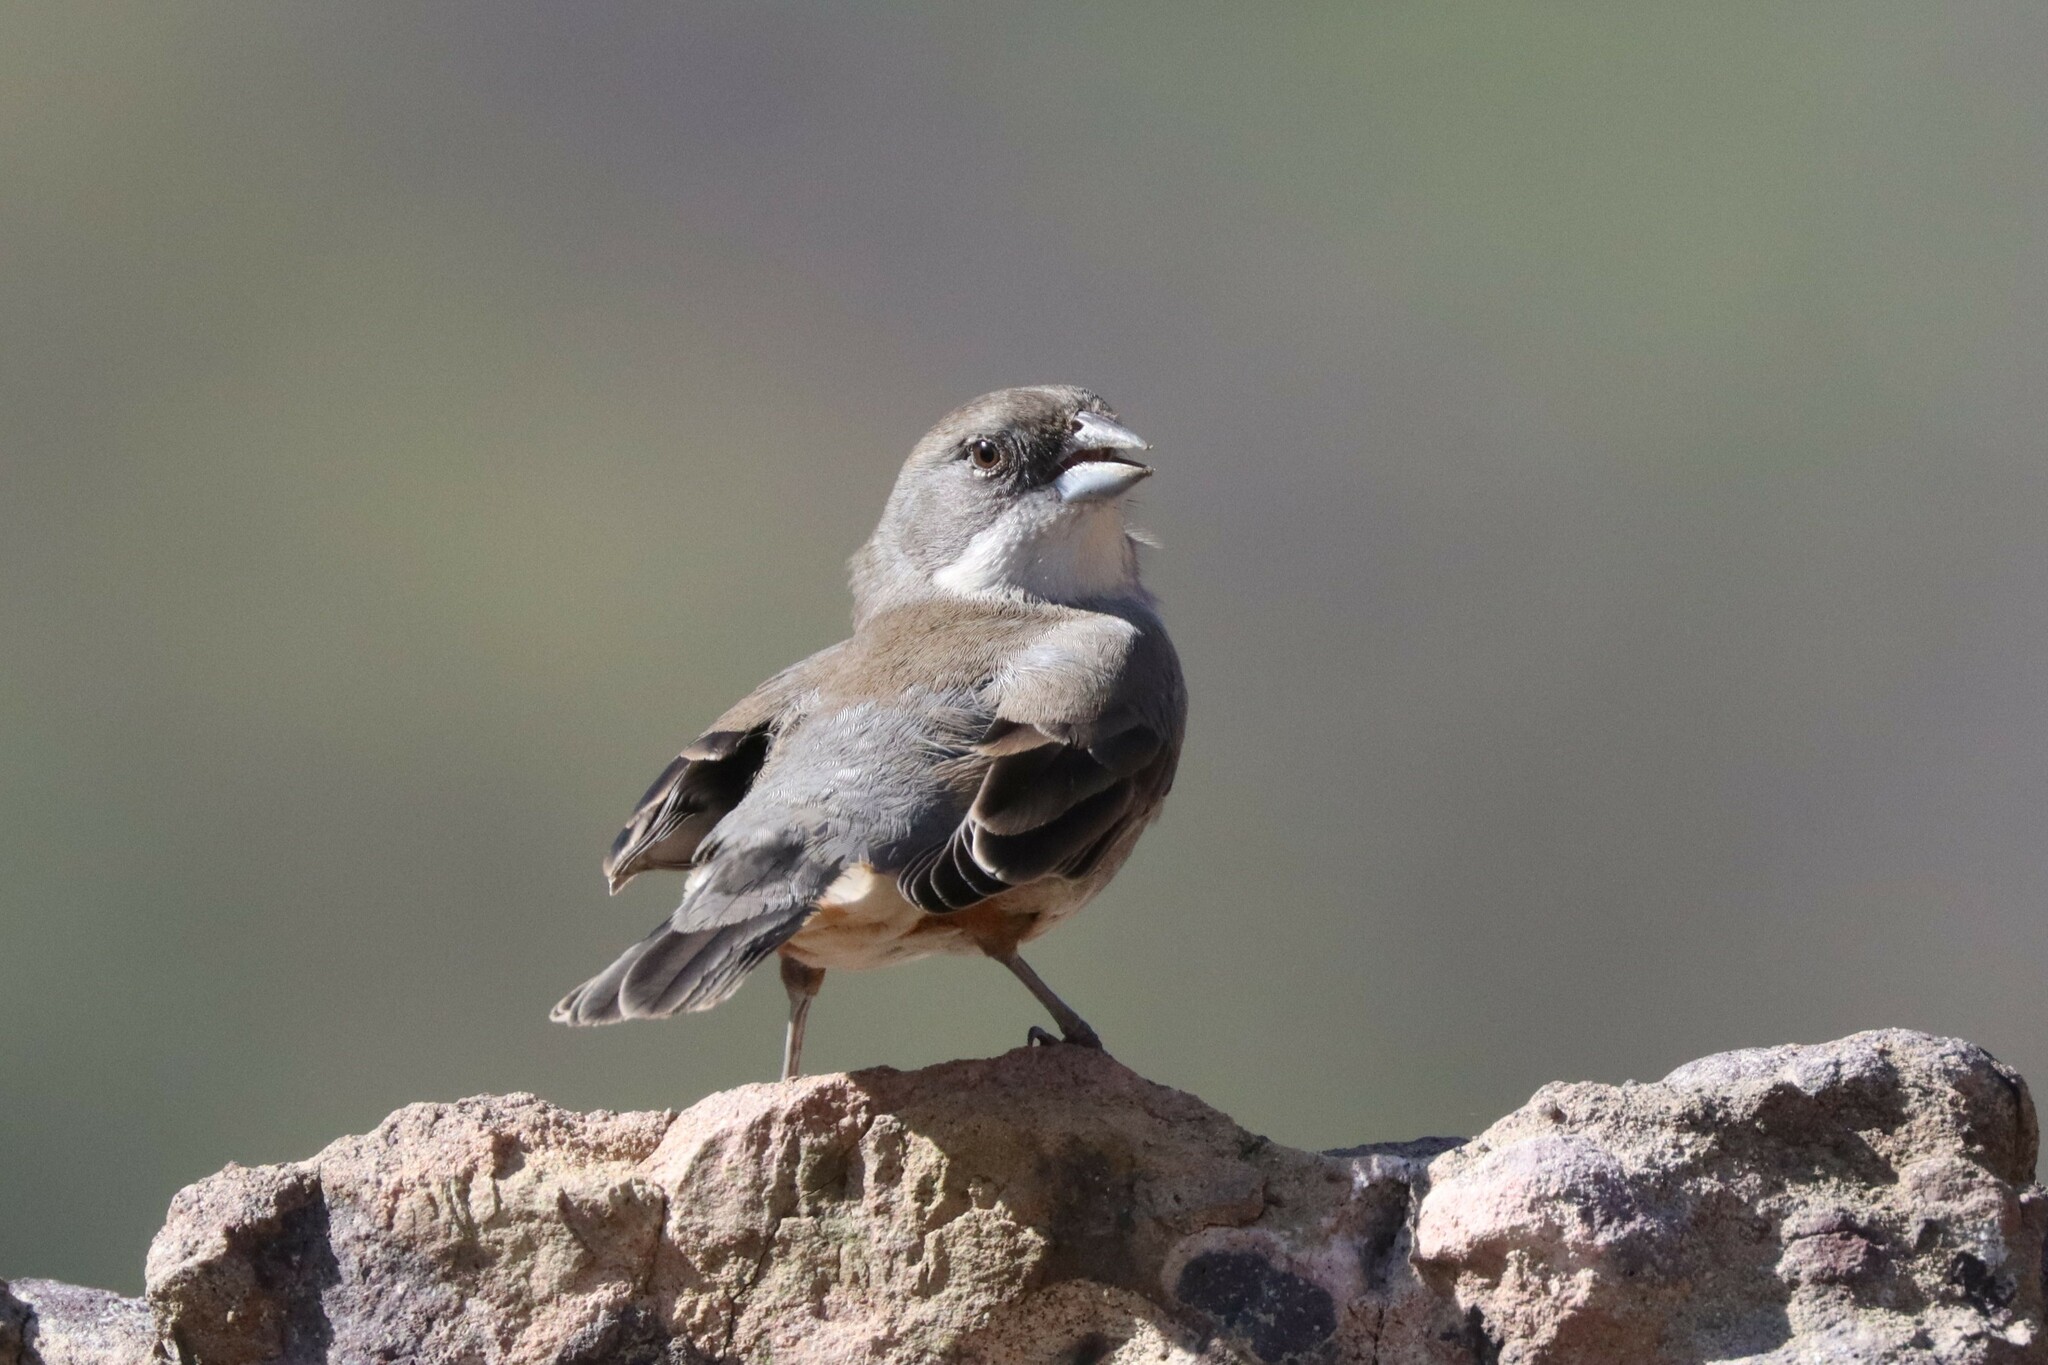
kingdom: Animalia
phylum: Chordata
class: Aves
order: Passeriformes
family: Thraupidae
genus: Diuca
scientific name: Diuca diuca
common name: Common diuca finch
